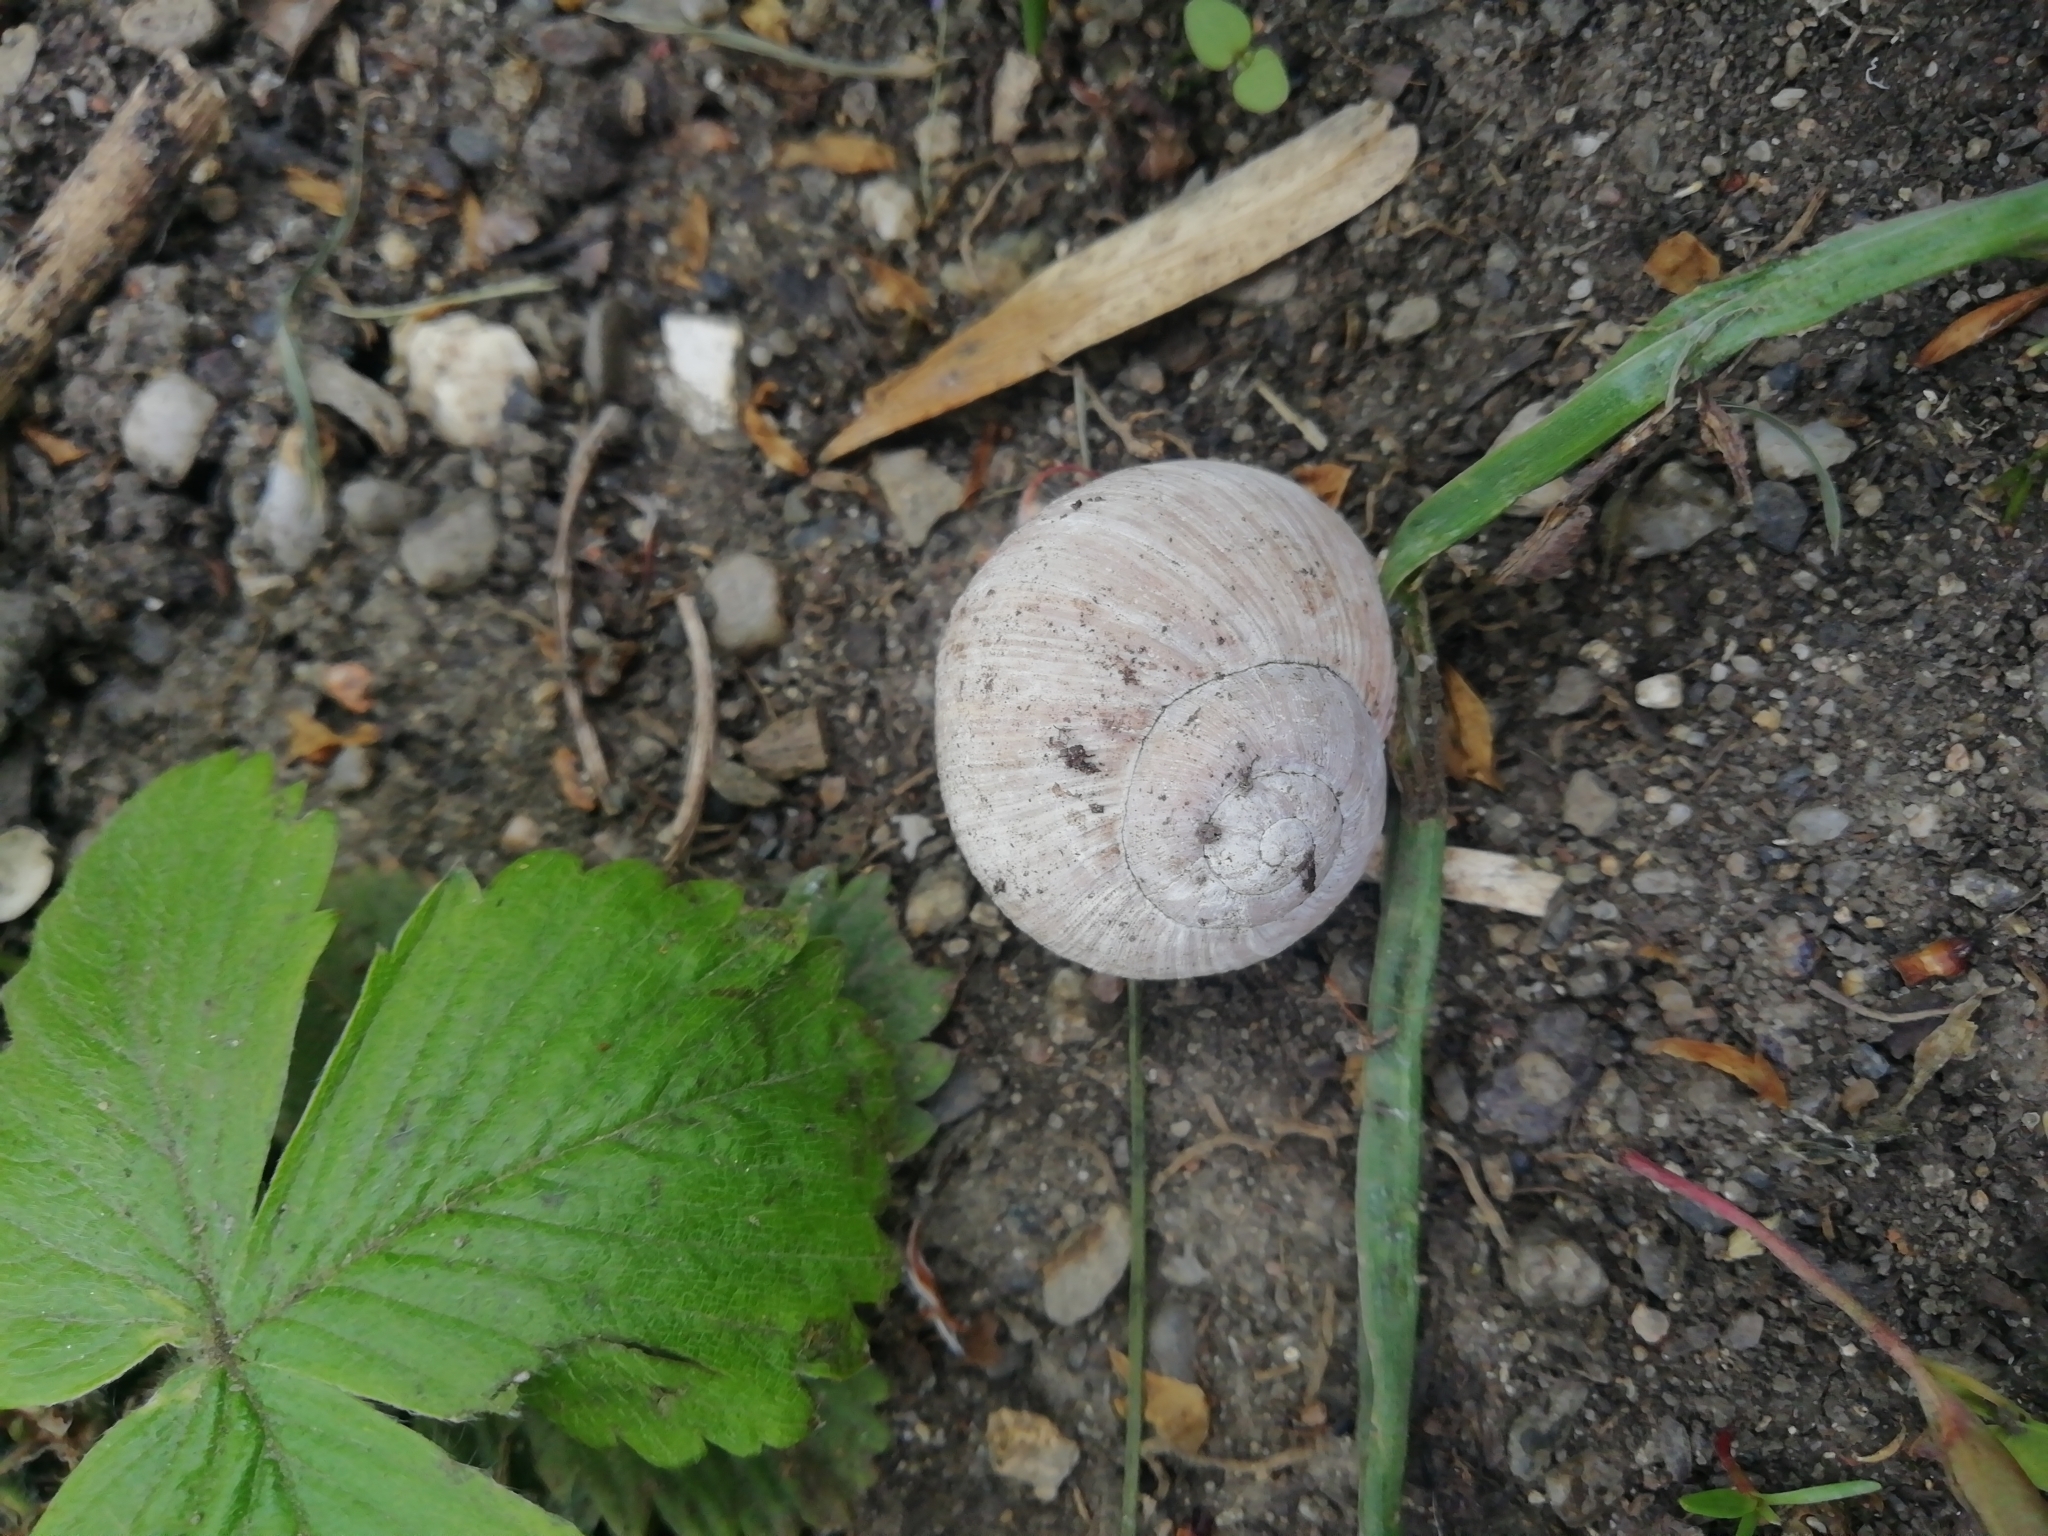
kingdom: Animalia
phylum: Mollusca
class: Gastropoda
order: Stylommatophora
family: Helicidae
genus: Helix
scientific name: Helix pomatia
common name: Roman snail
